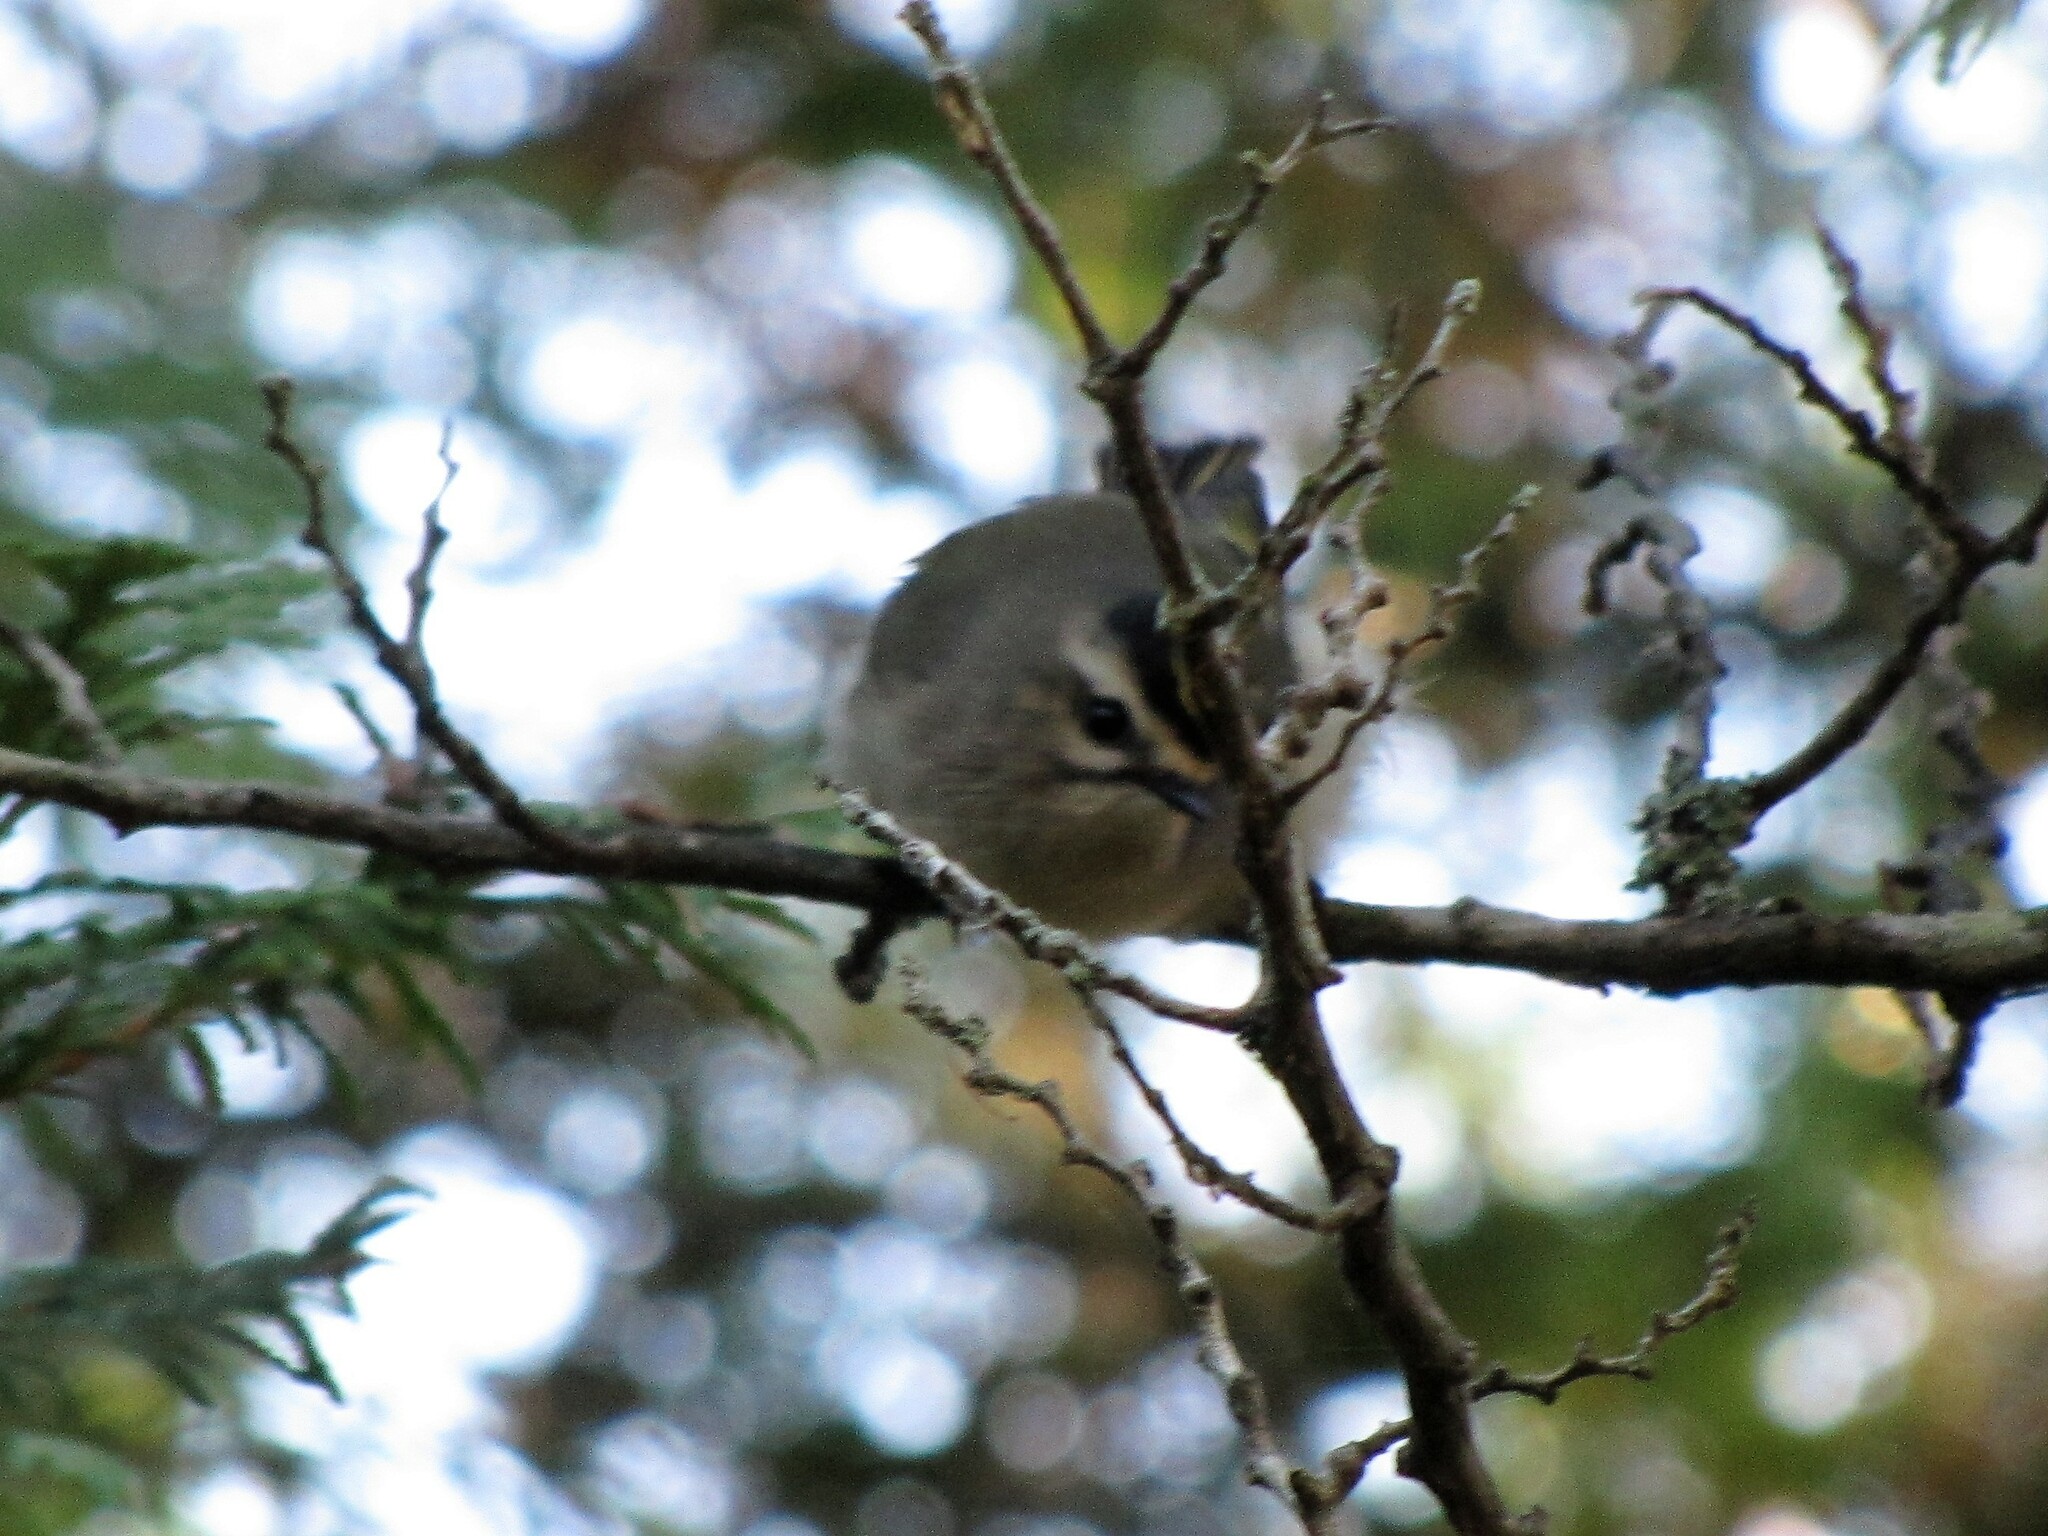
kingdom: Animalia
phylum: Chordata
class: Aves
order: Passeriformes
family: Regulidae
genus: Regulus
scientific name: Regulus satrapa
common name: Golden-crowned kinglet
